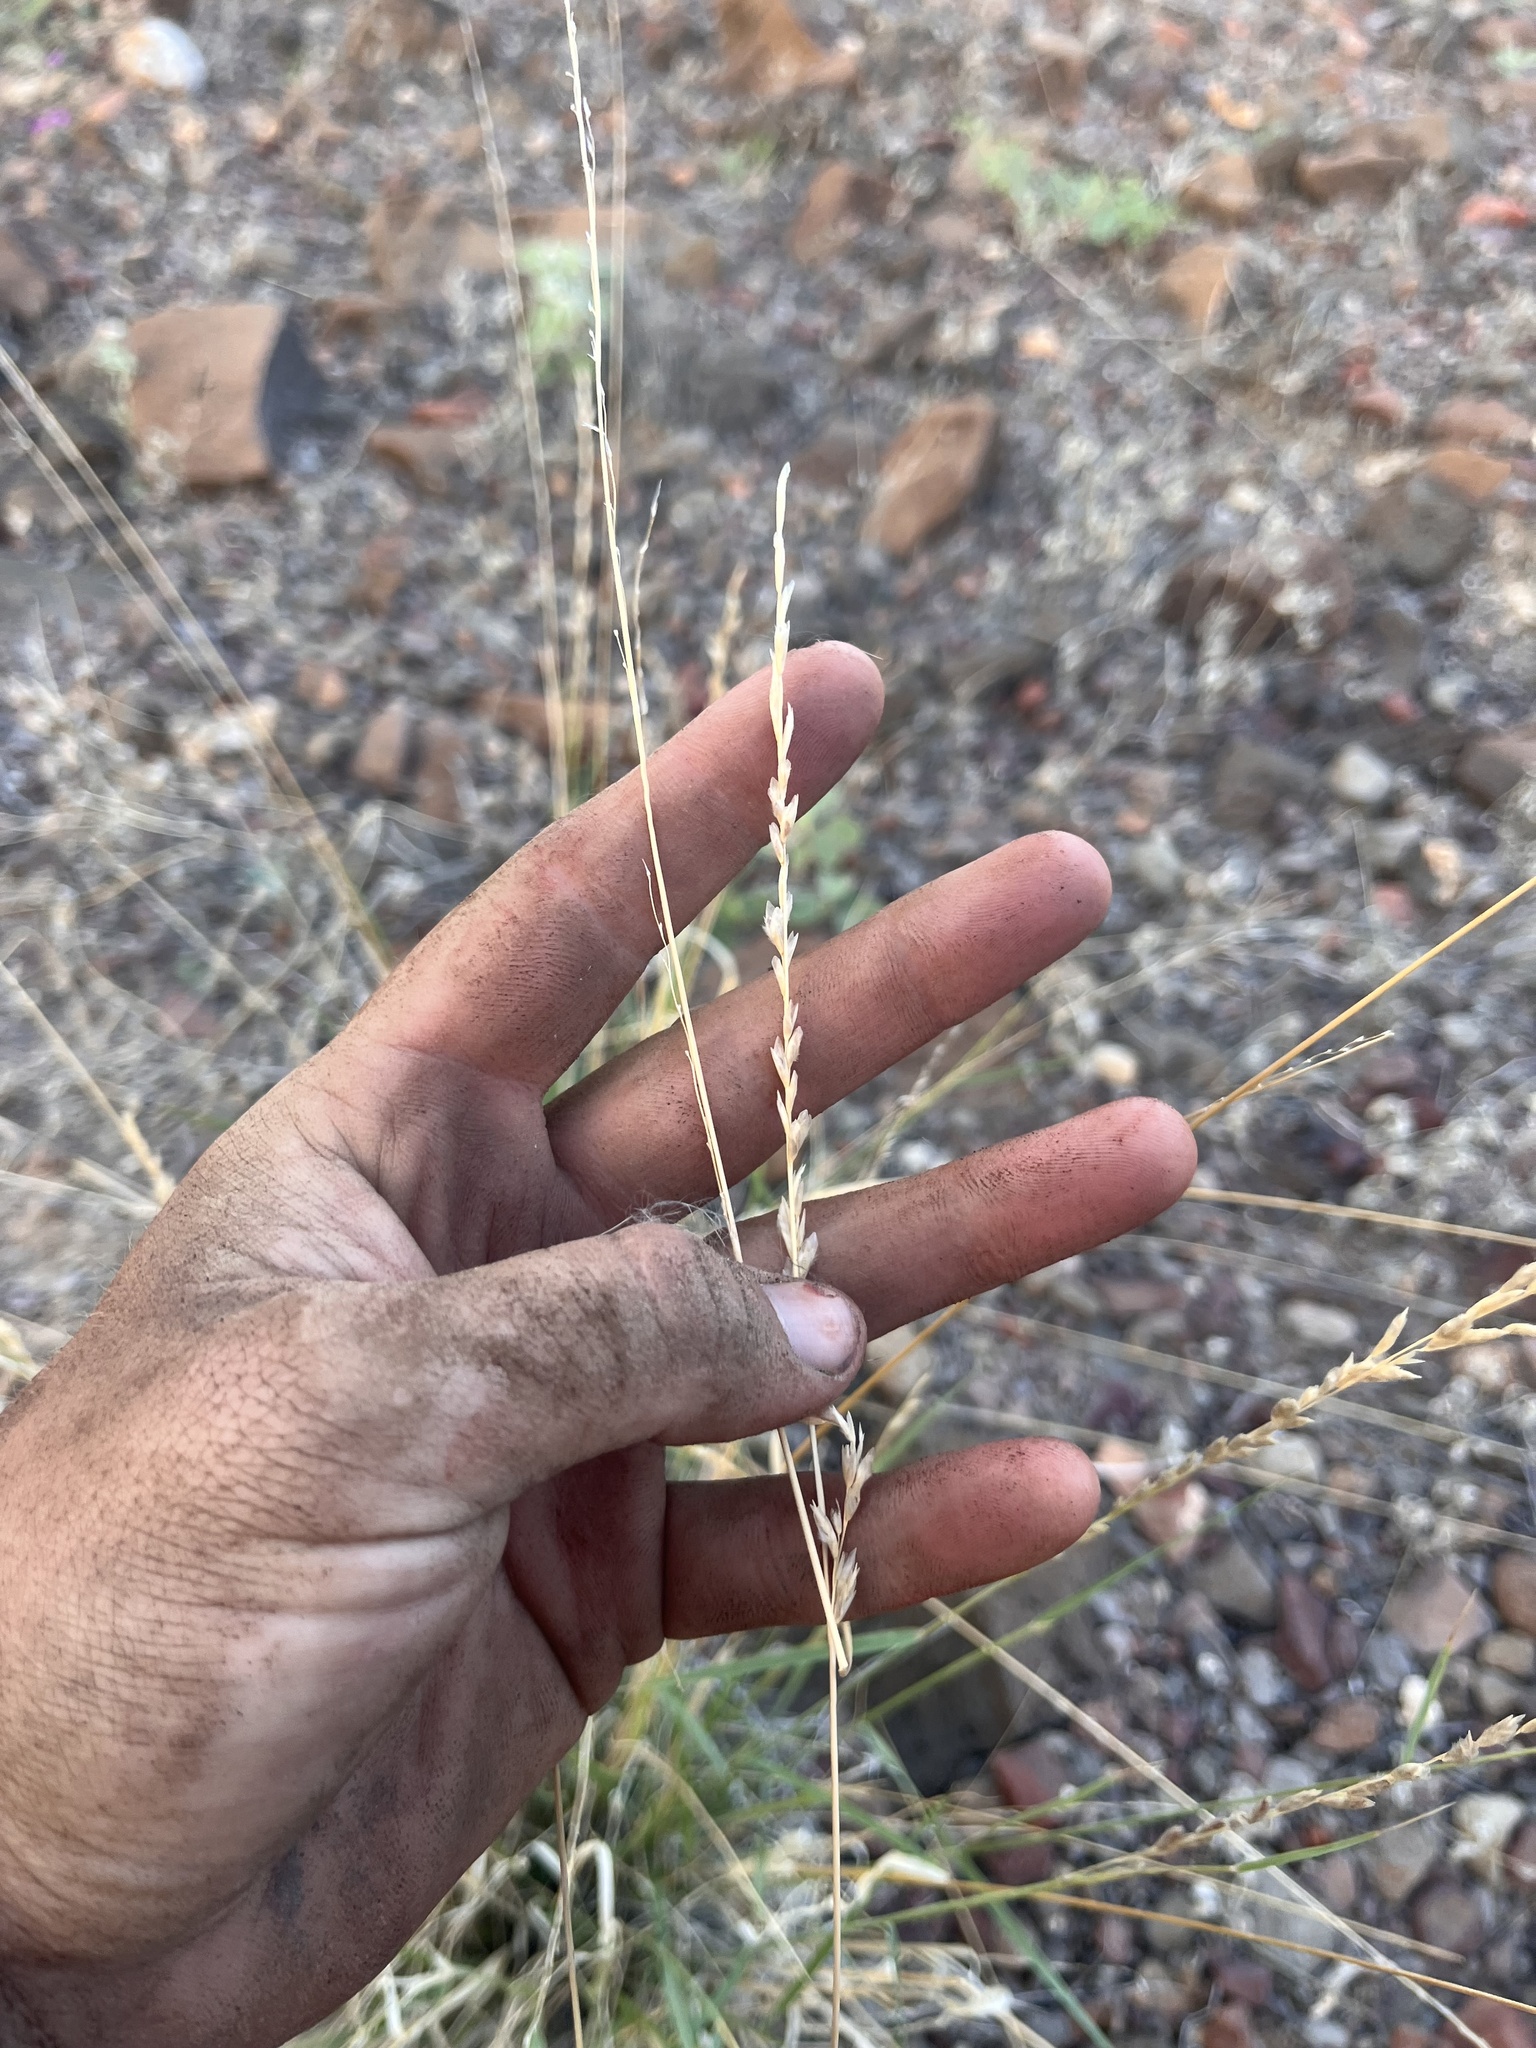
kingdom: Plantae
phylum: Tracheophyta
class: Liliopsida
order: Poales
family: Poaceae
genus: Tridentopsis
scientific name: Tridentopsis mutica
